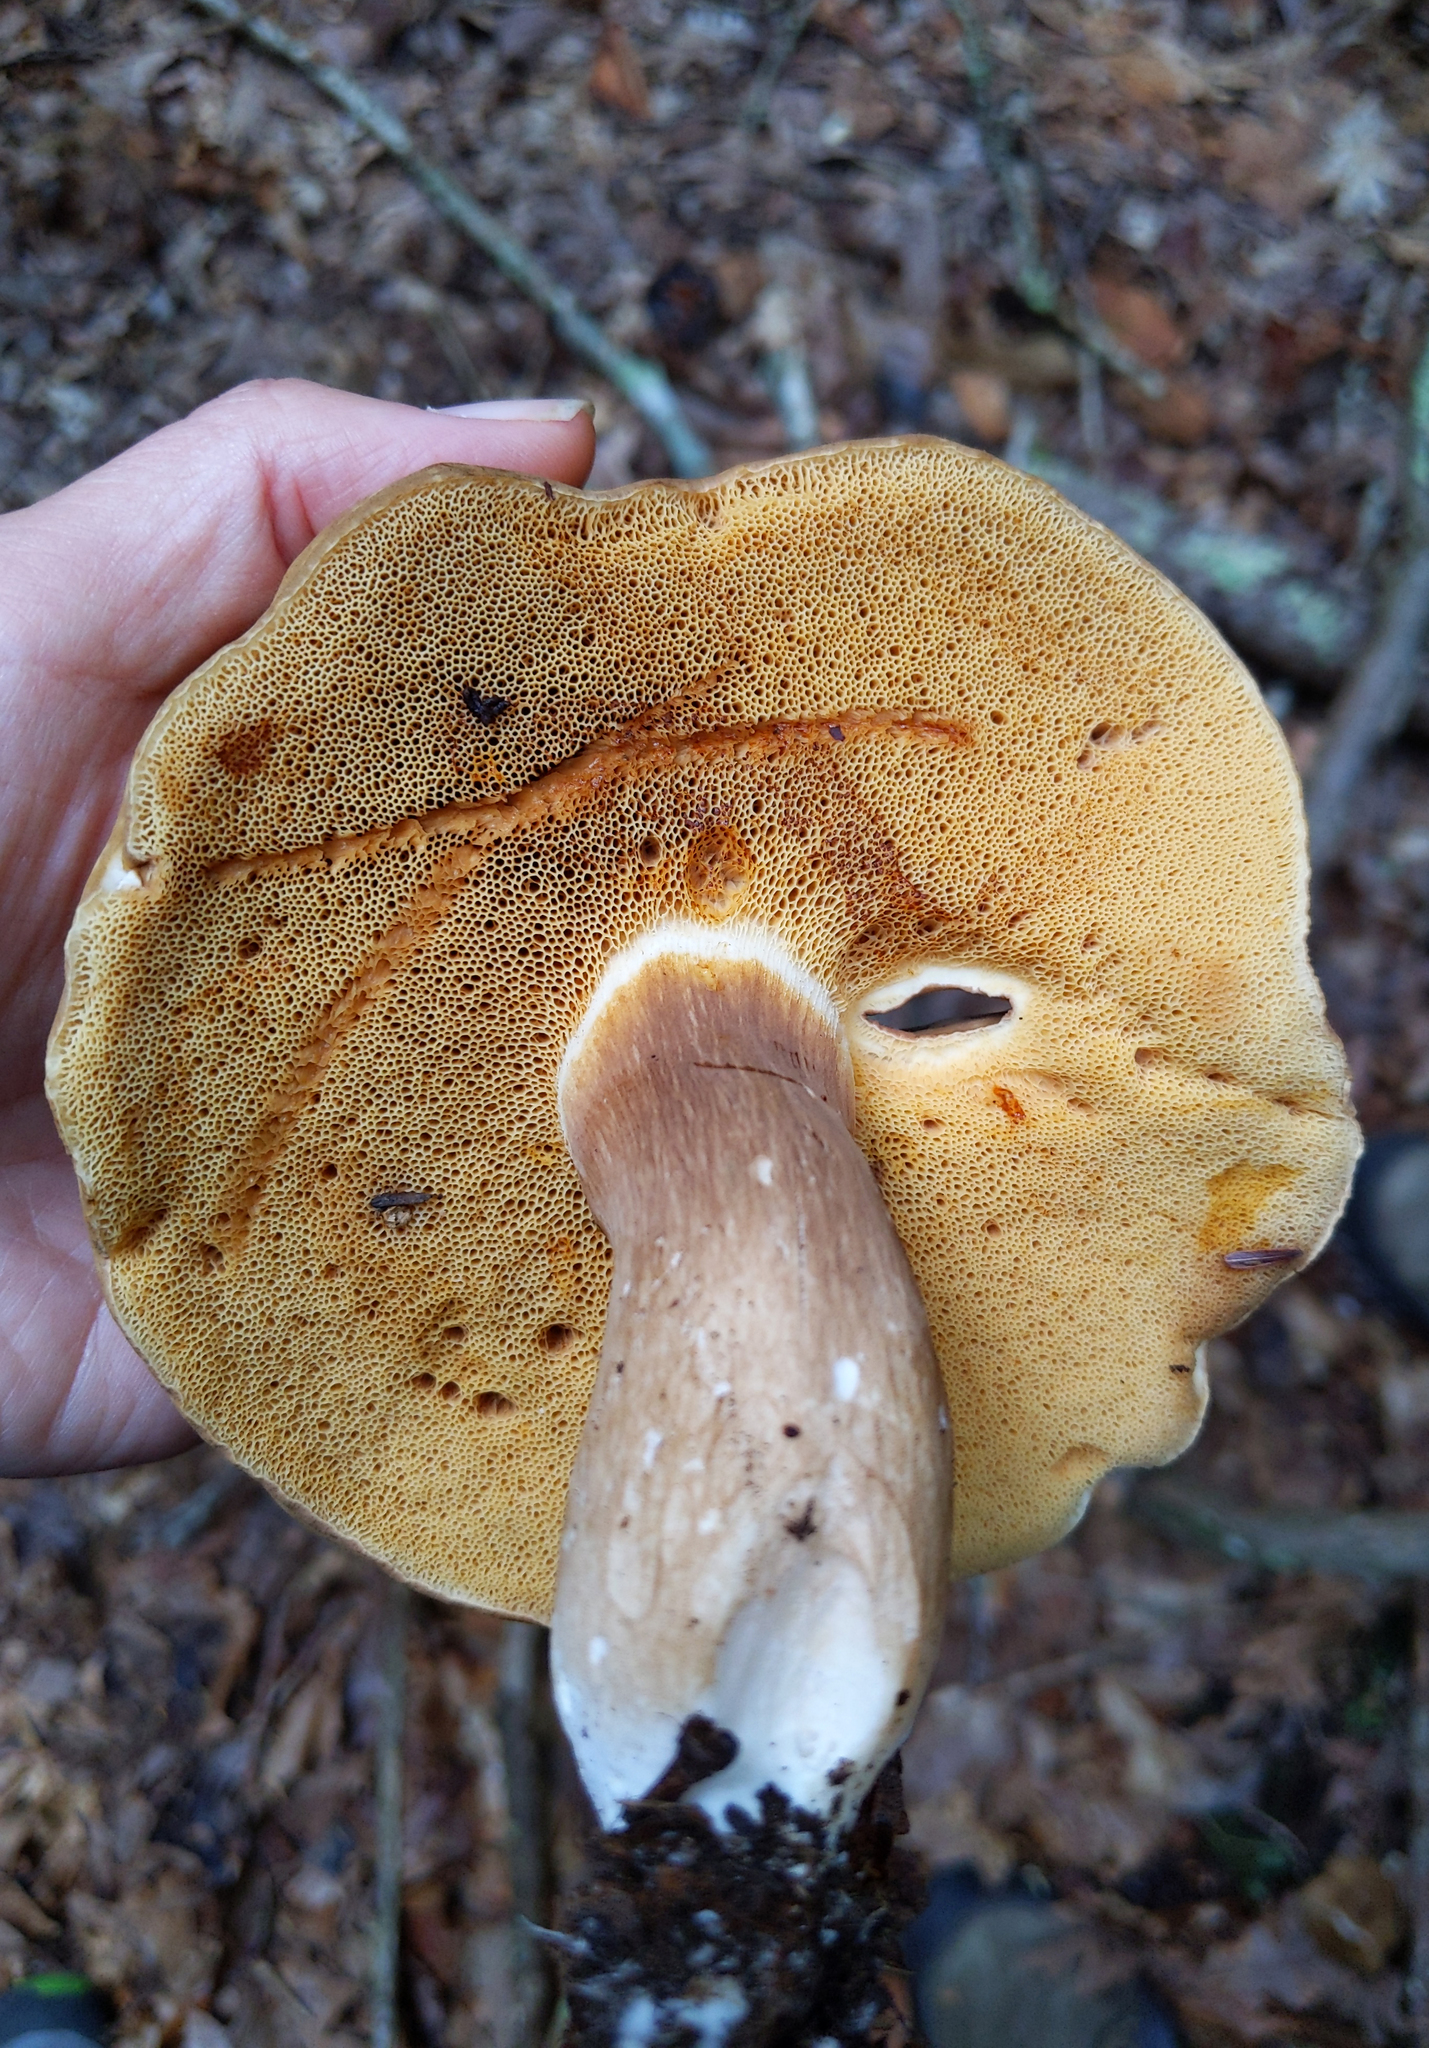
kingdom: Fungi
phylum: Basidiomycota
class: Agaricomycetes
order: Boletales
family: Boletaceae
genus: Xanthoconium
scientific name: Xanthoconium affine
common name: Spotted bolete
